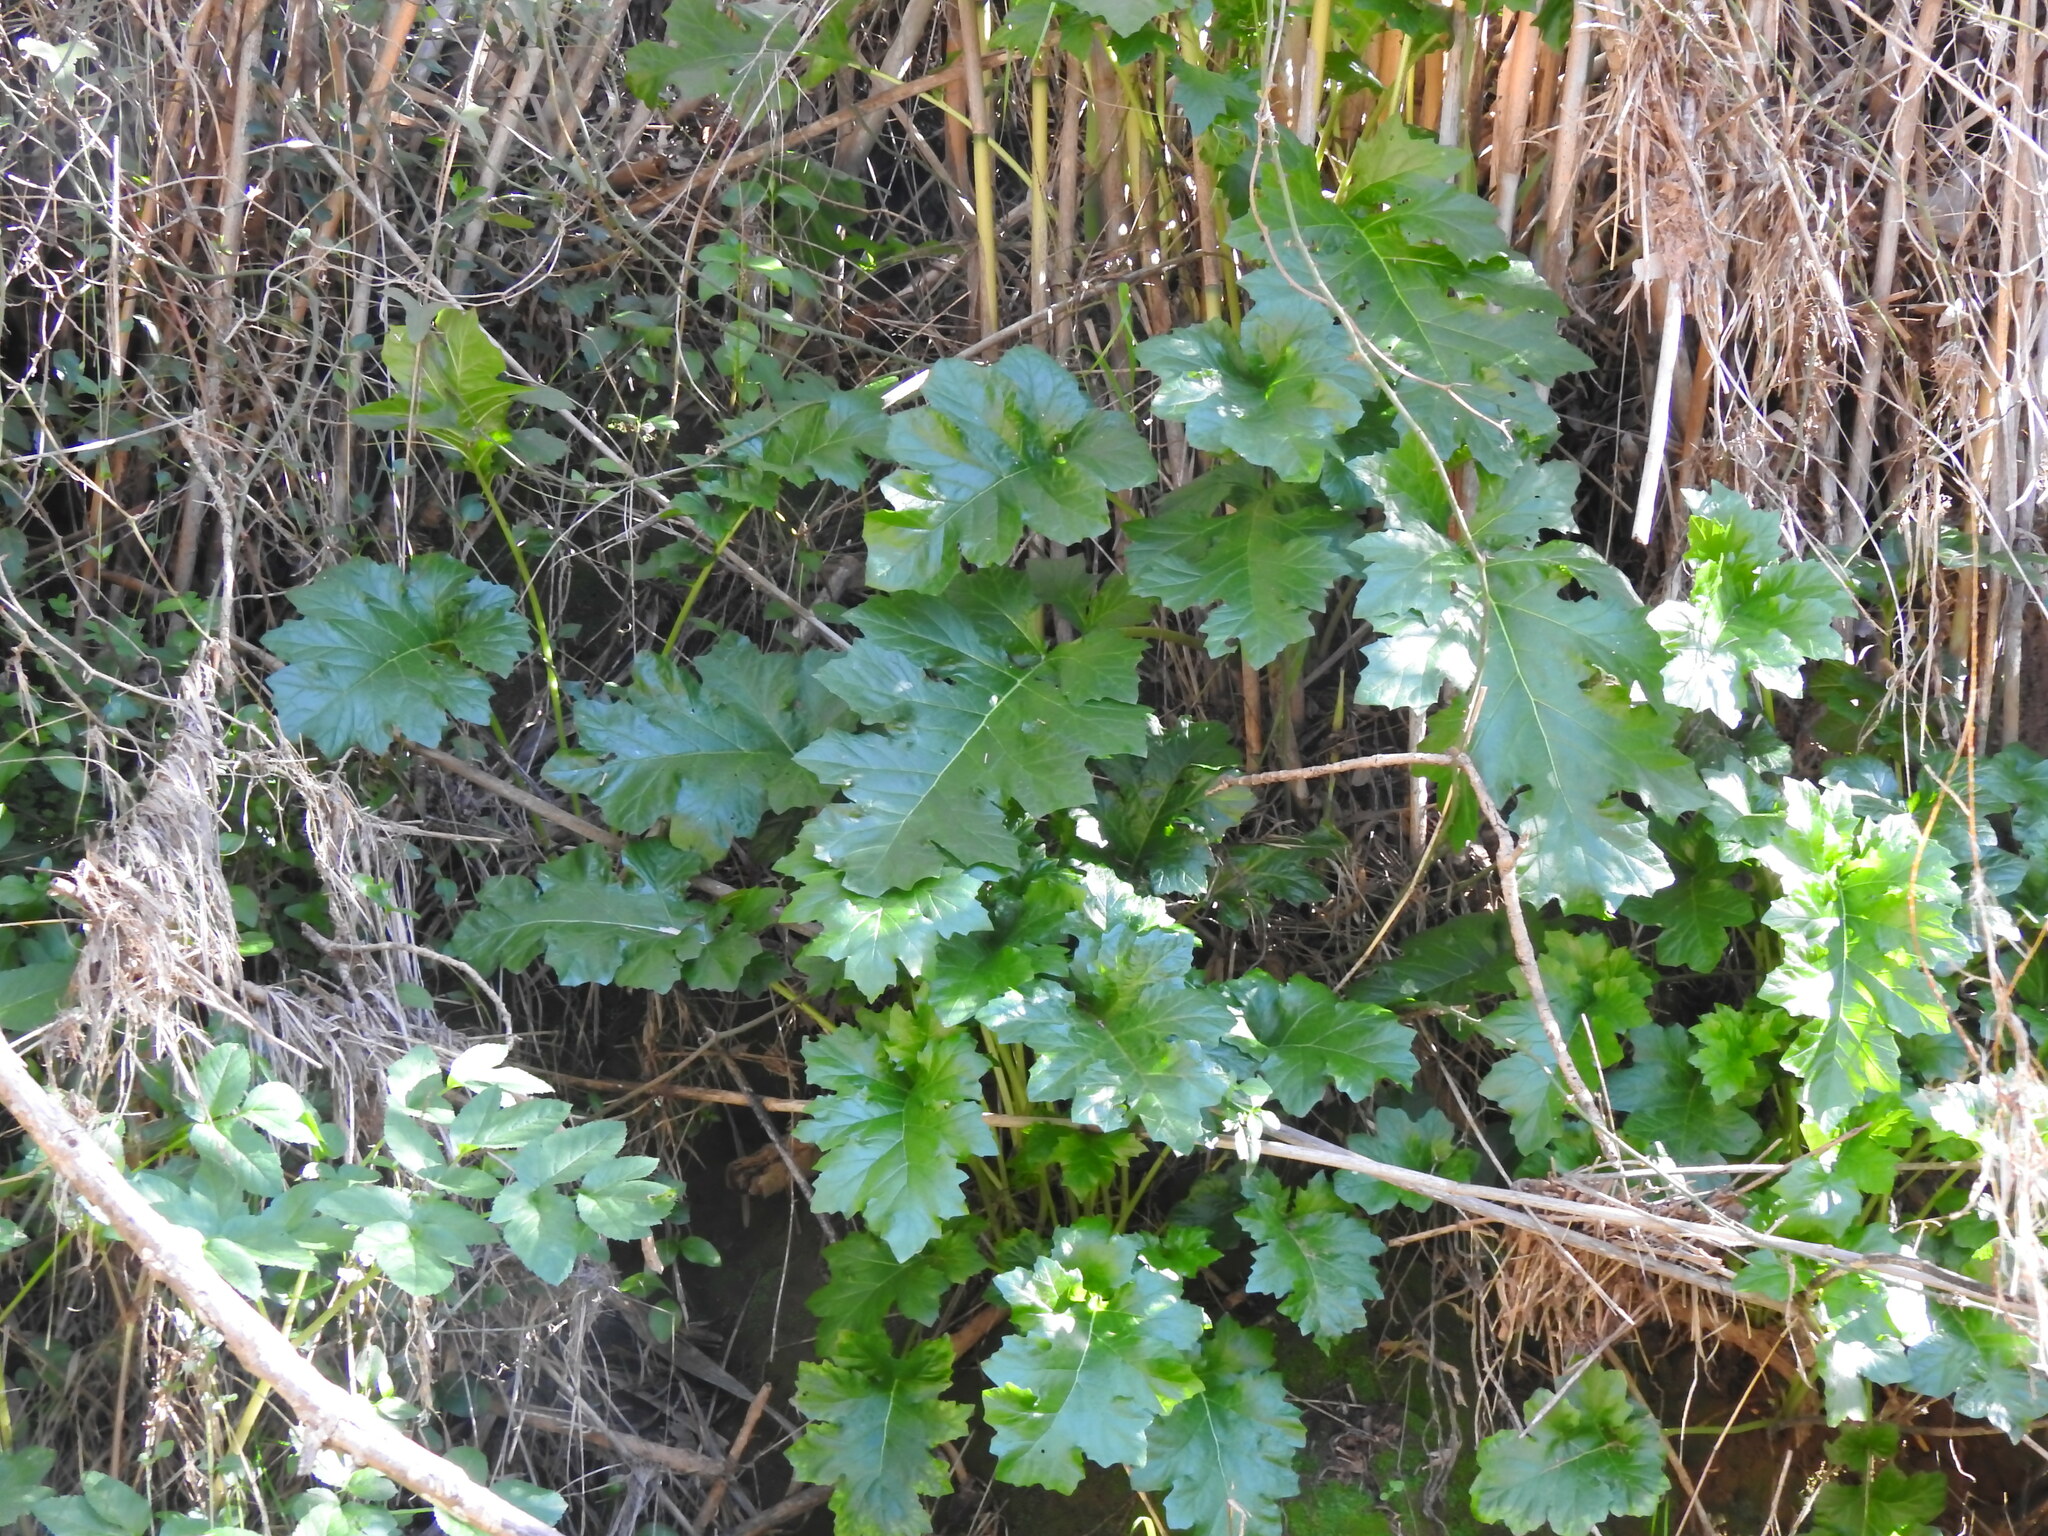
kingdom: Plantae
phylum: Tracheophyta
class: Magnoliopsida
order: Lamiales
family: Acanthaceae
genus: Acanthus
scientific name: Acanthus mollis
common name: Bear's-breech
